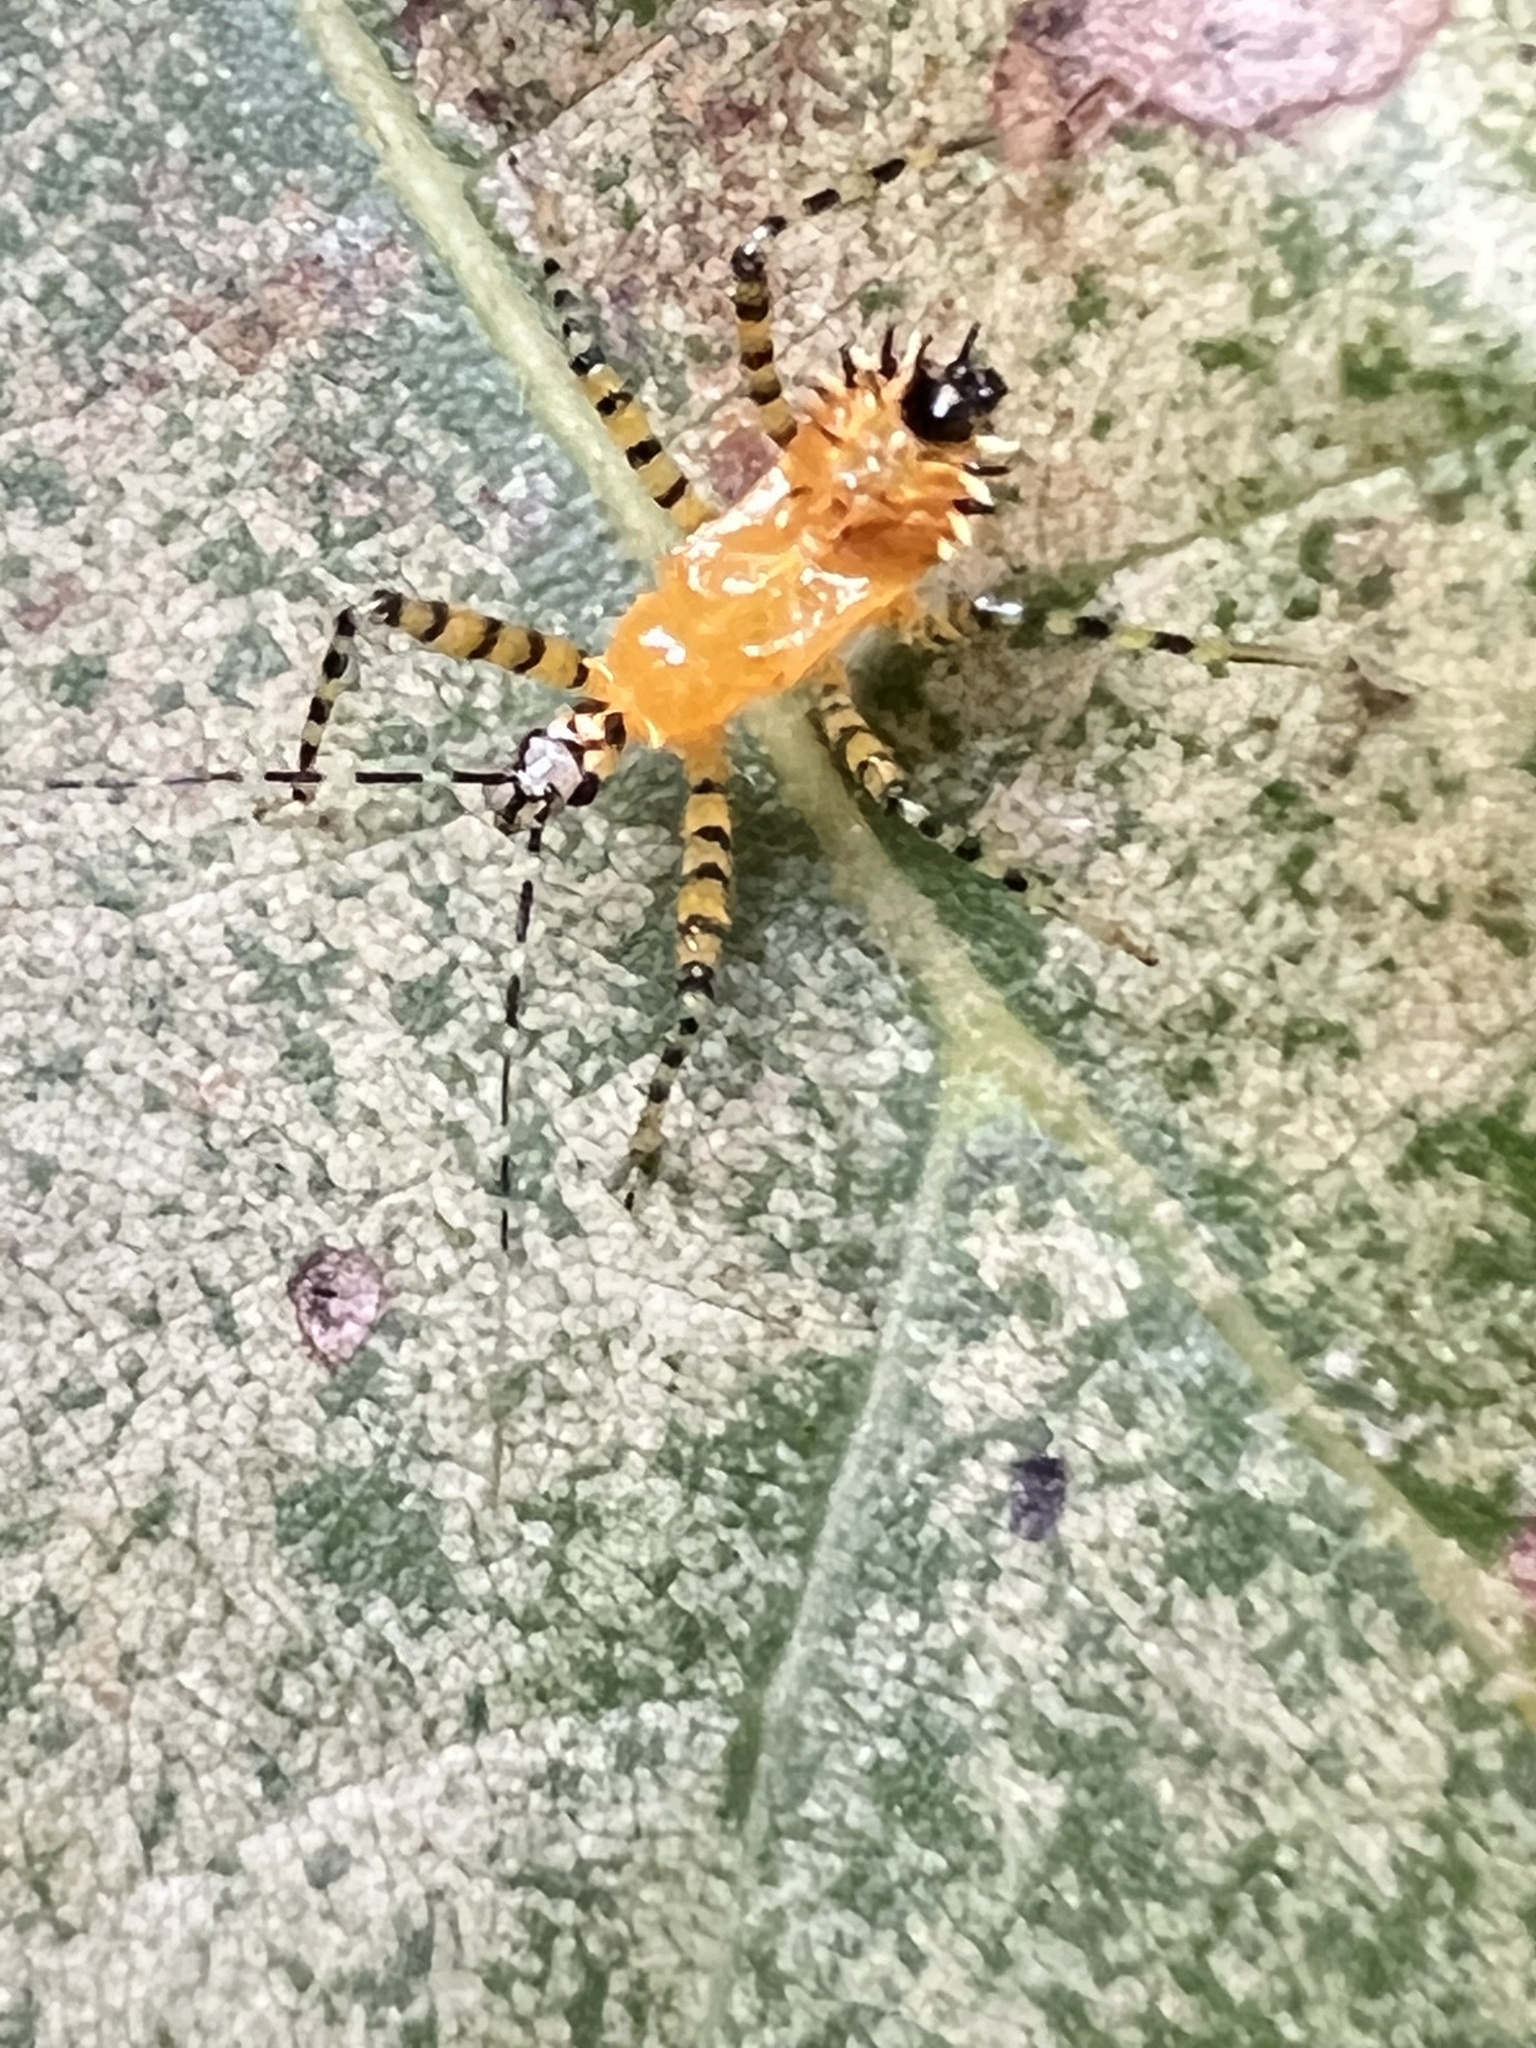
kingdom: Animalia
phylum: Arthropoda
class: Insecta
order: Hemiptera
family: Reduviidae
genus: Pselliopus
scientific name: Pselliopus barberi
